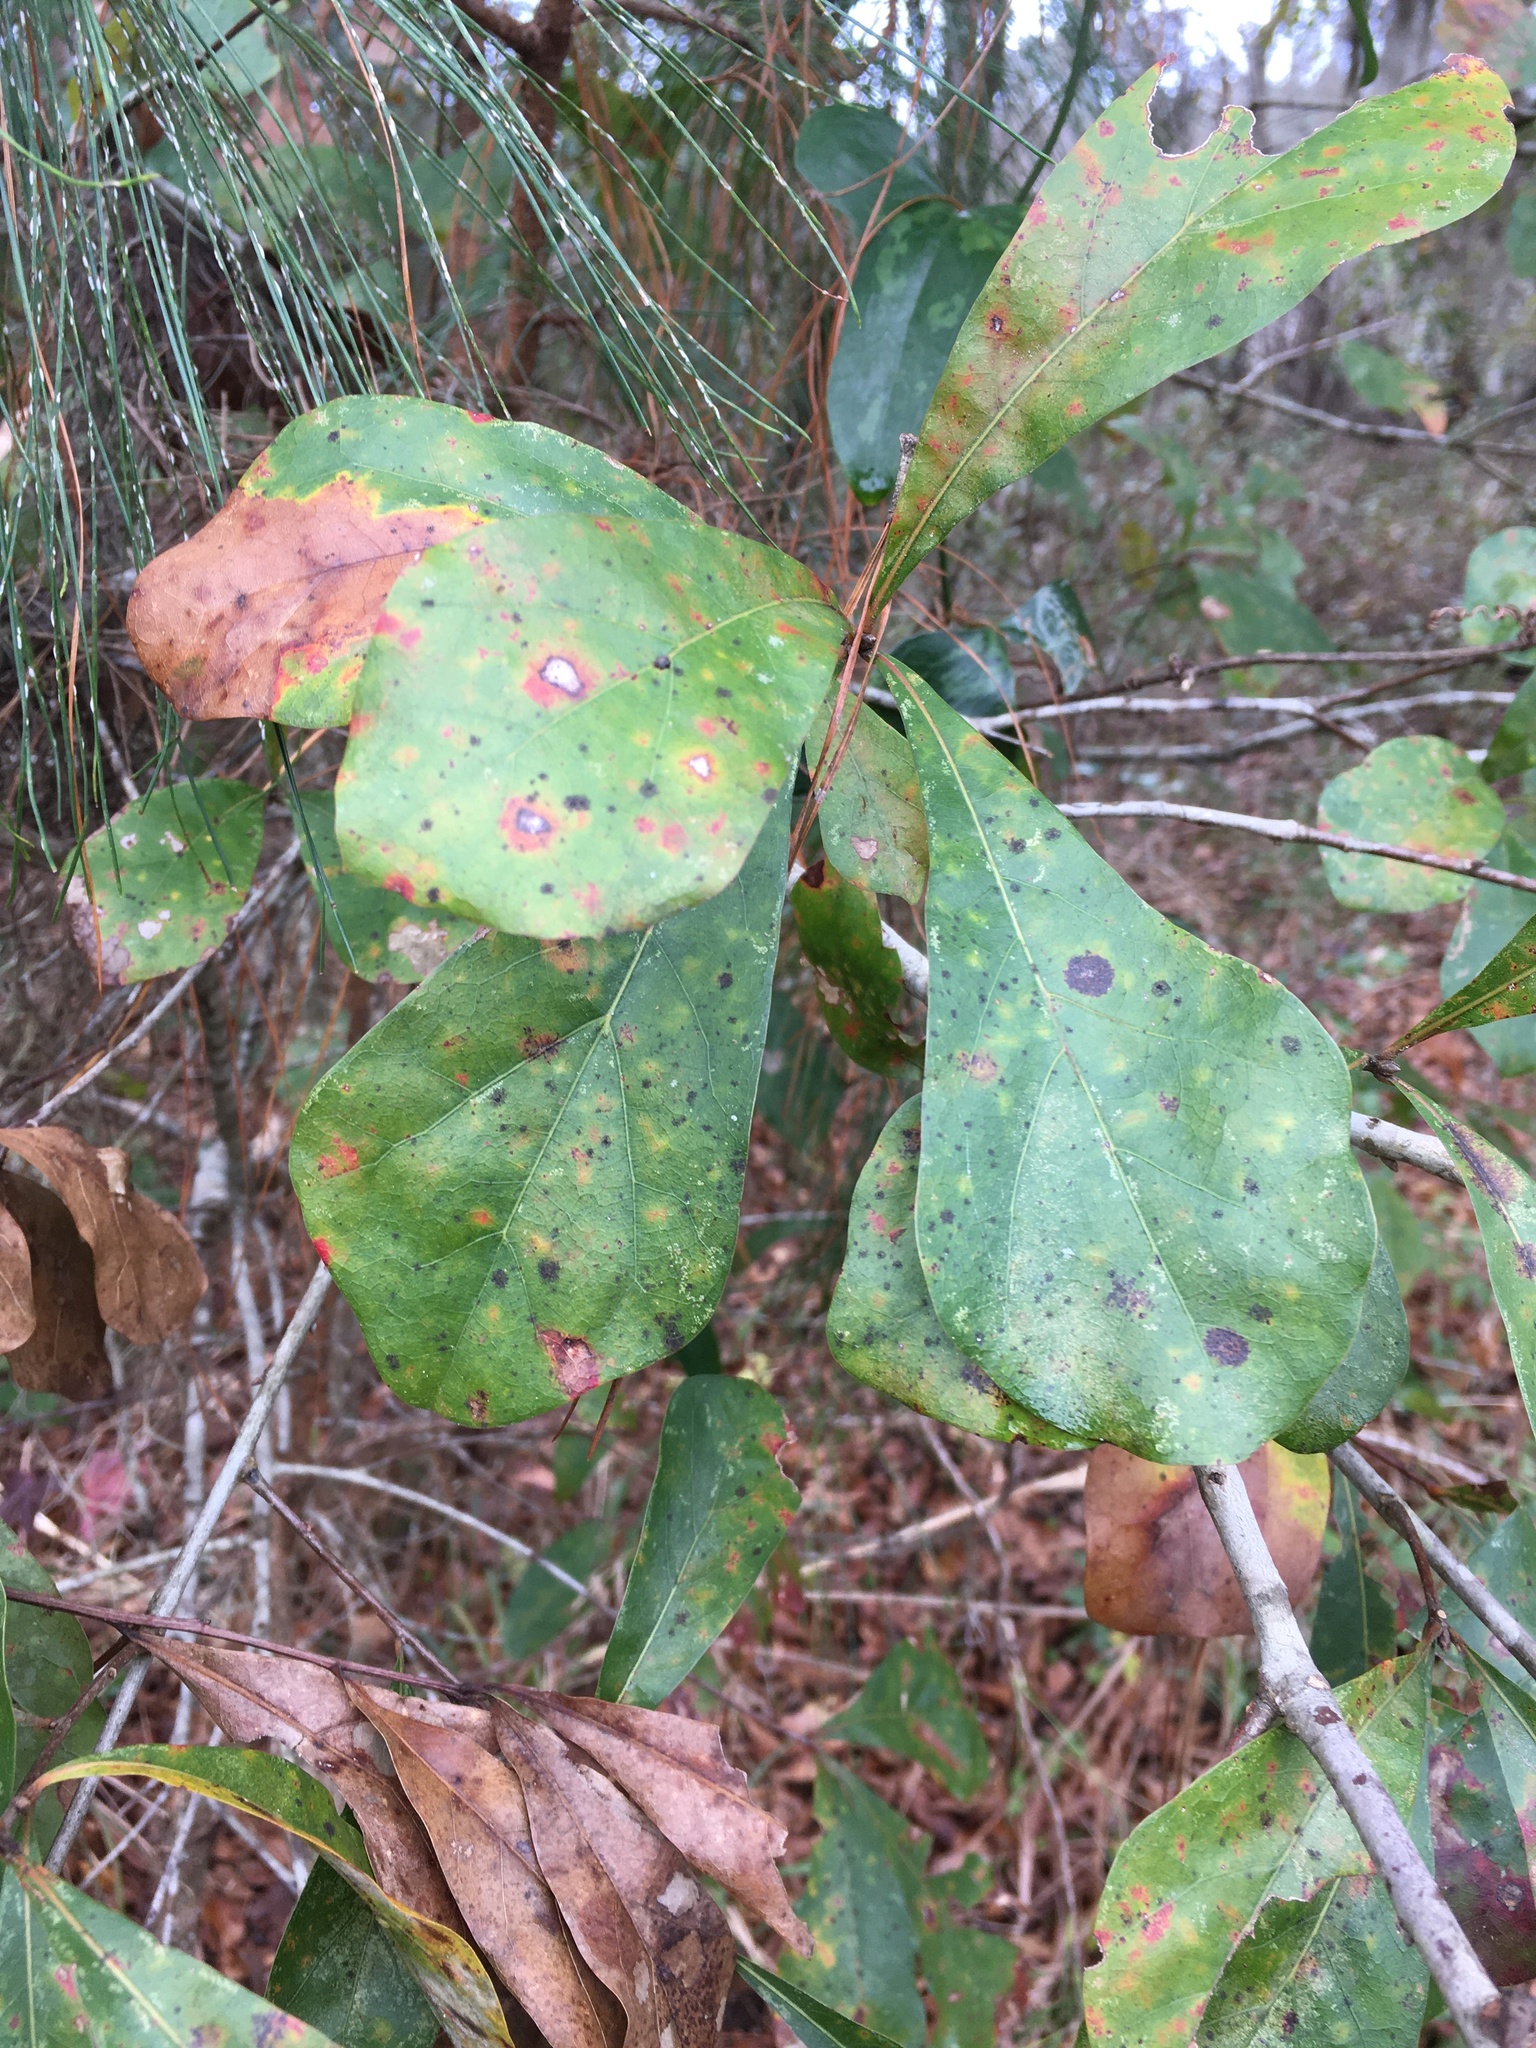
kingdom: Plantae
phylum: Tracheophyta
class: Magnoliopsida
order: Fagales
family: Fagaceae
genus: Quercus
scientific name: Quercus nigra
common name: Water oak
